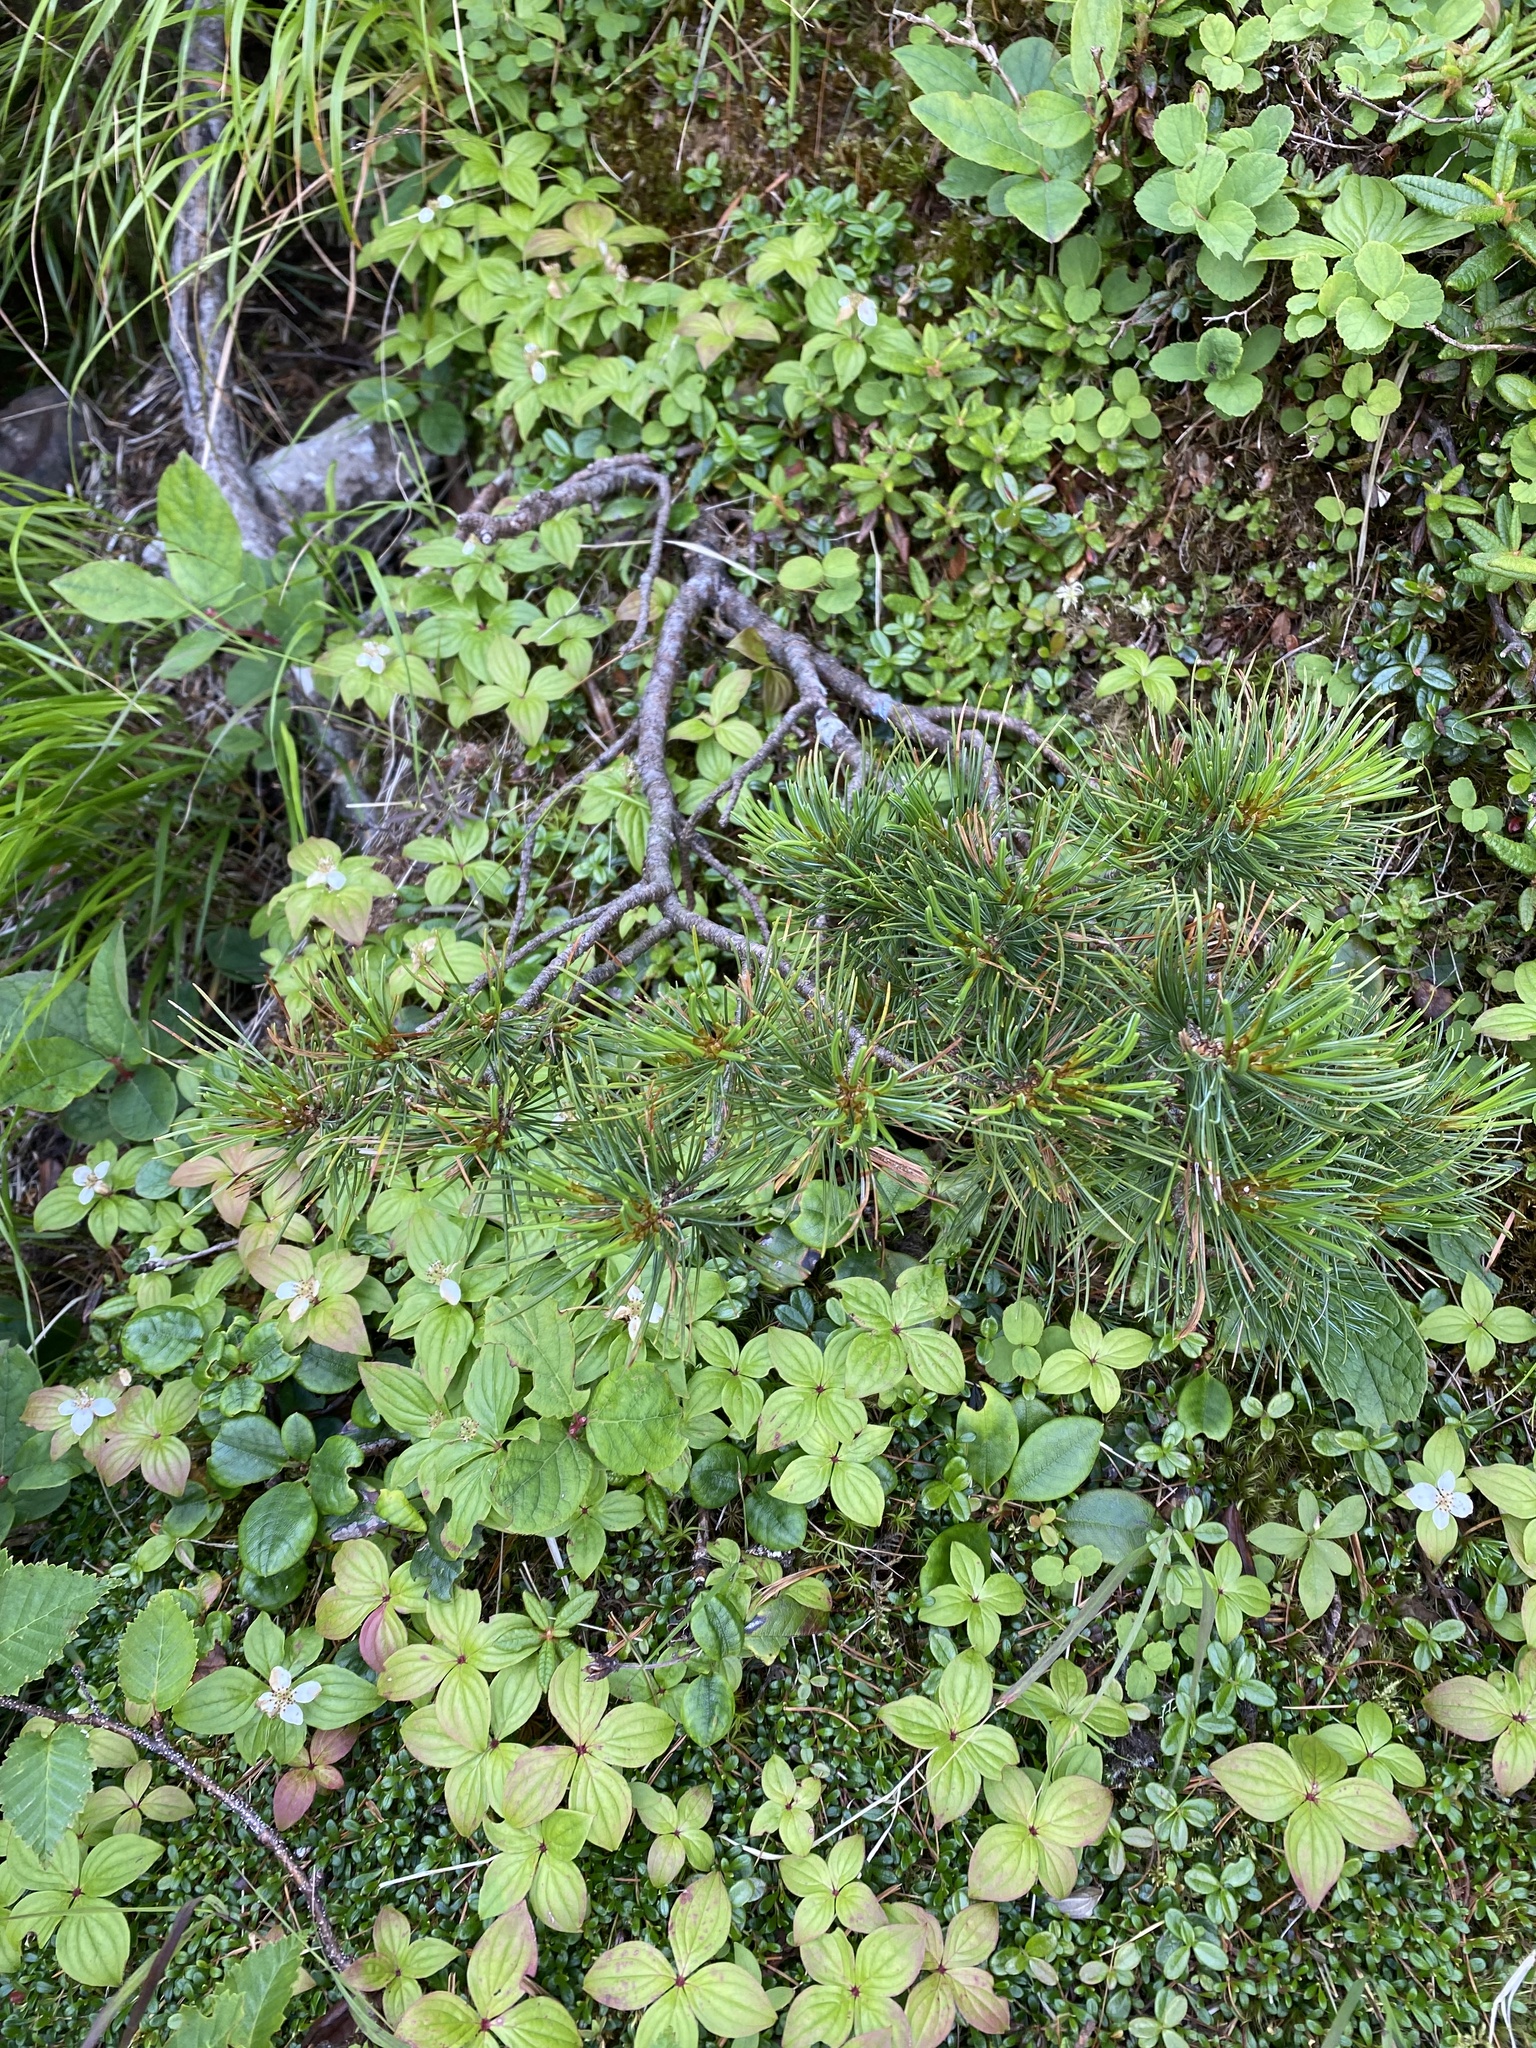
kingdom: Plantae
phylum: Tracheophyta
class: Pinopsida
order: Pinales
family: Pinaceae
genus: Pinus
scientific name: Pinus pumila
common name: Dwarf siberian pine
